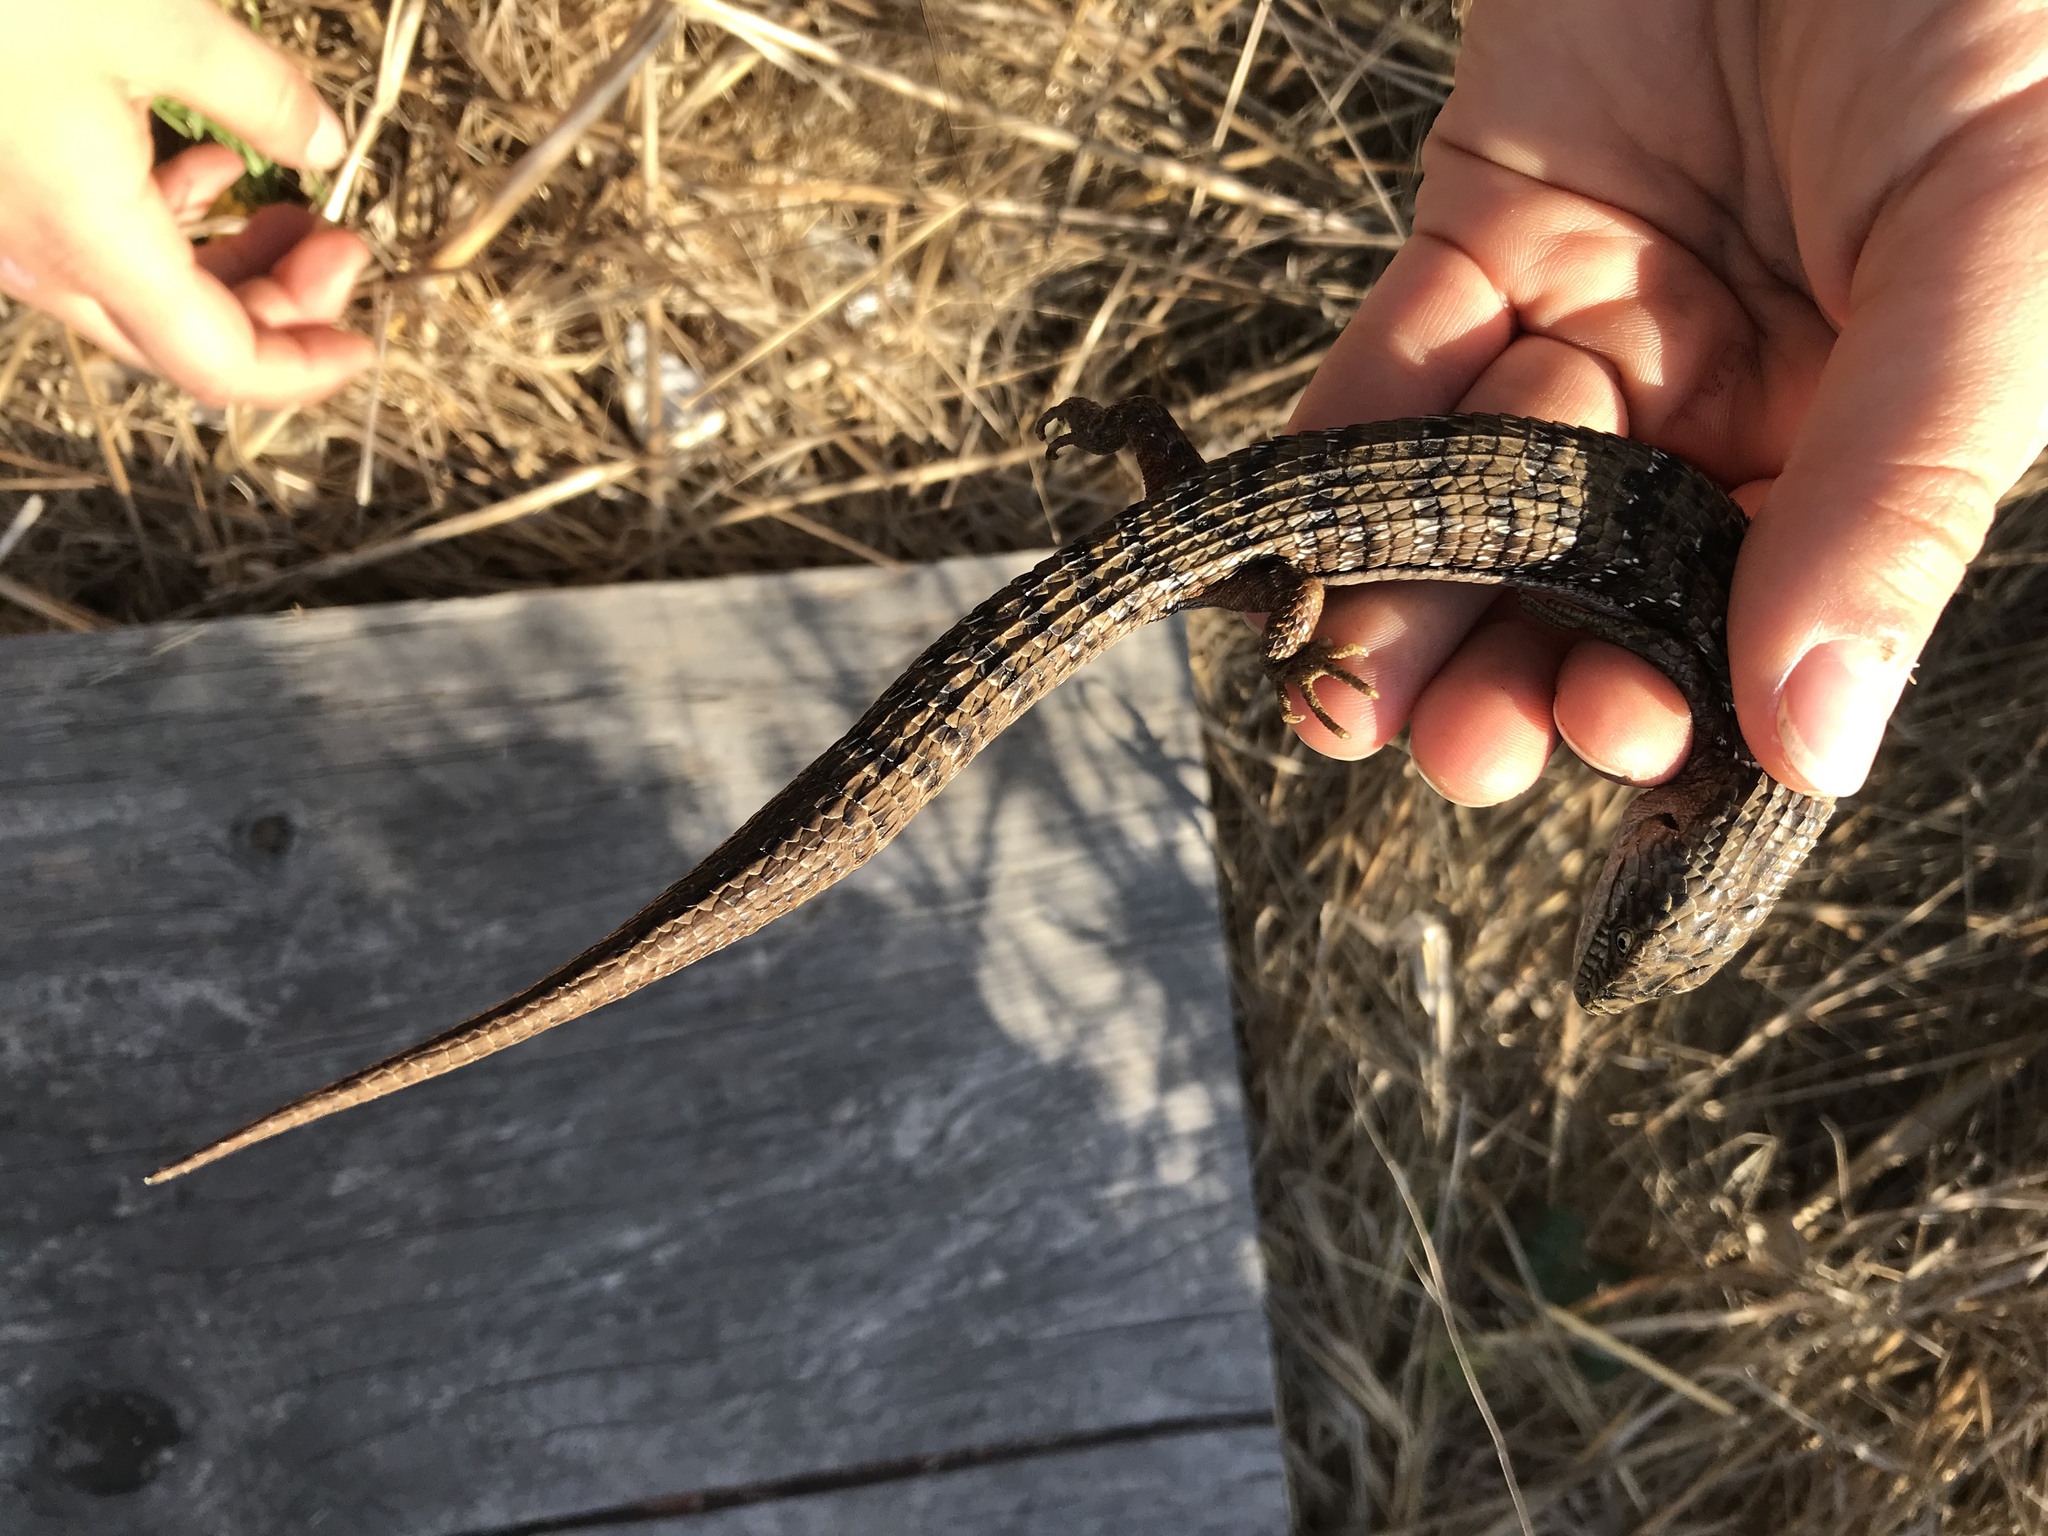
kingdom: Animalia
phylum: Chordata
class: Squamata
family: Anguidae
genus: Elgaria
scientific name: Elgaria multicarinata
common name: Southern alligator lizard
